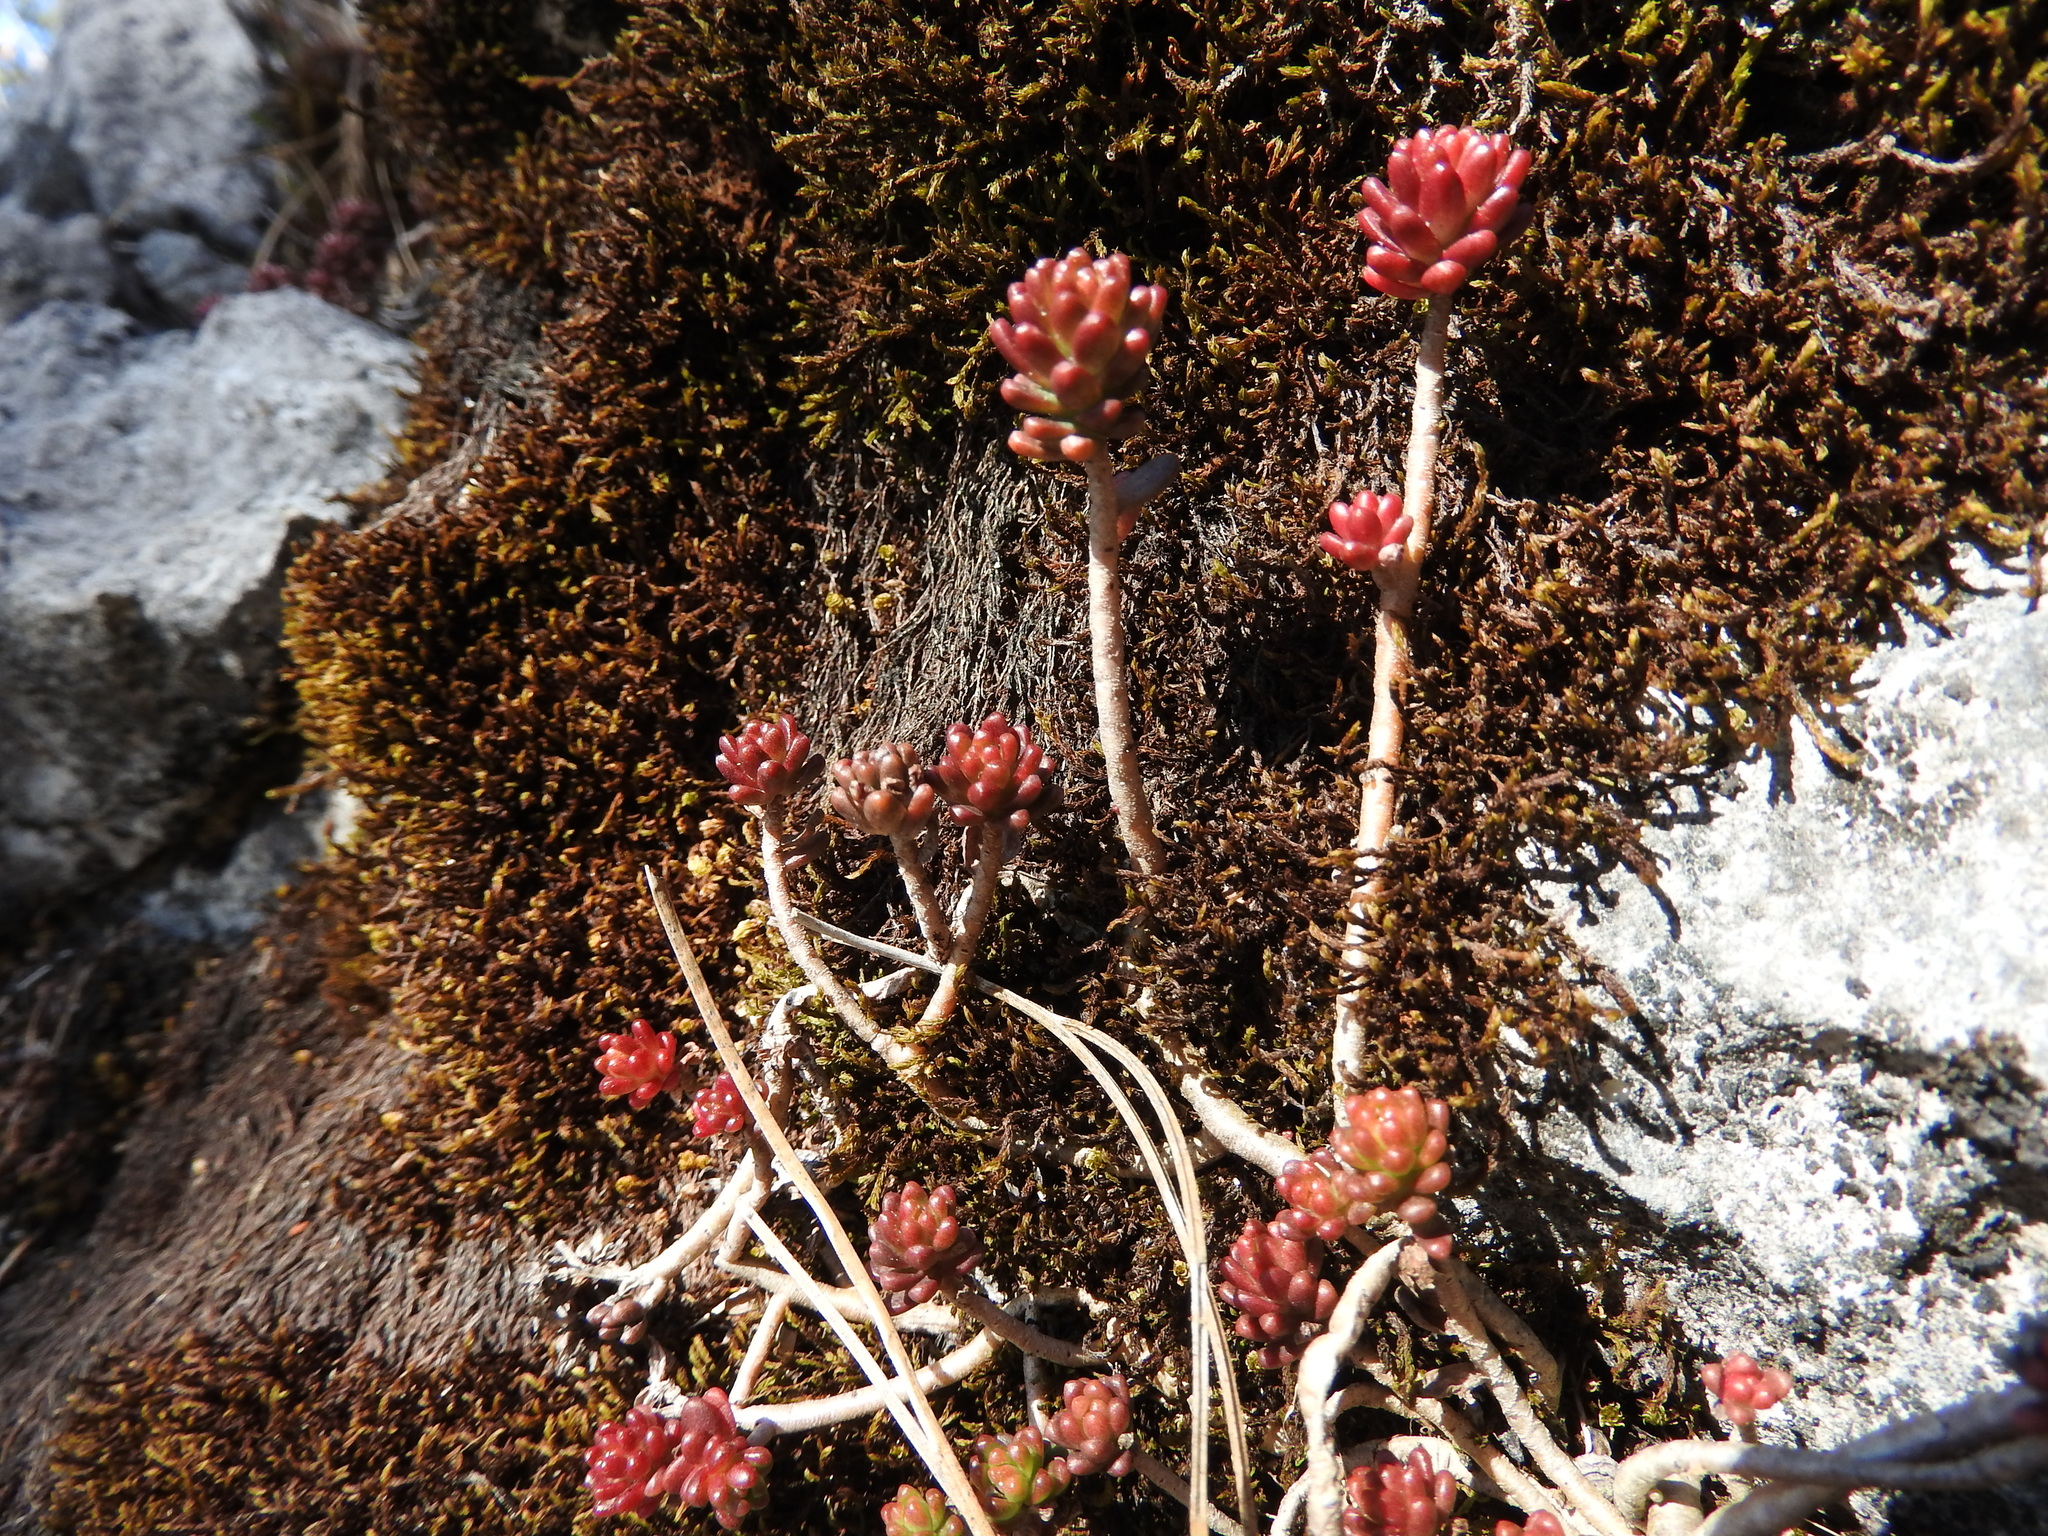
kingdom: Plantae
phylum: Tracheophyta
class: Magnoliopsida
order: Saxifragales
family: Crassulaceae
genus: Sedum
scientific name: Sedum australe
